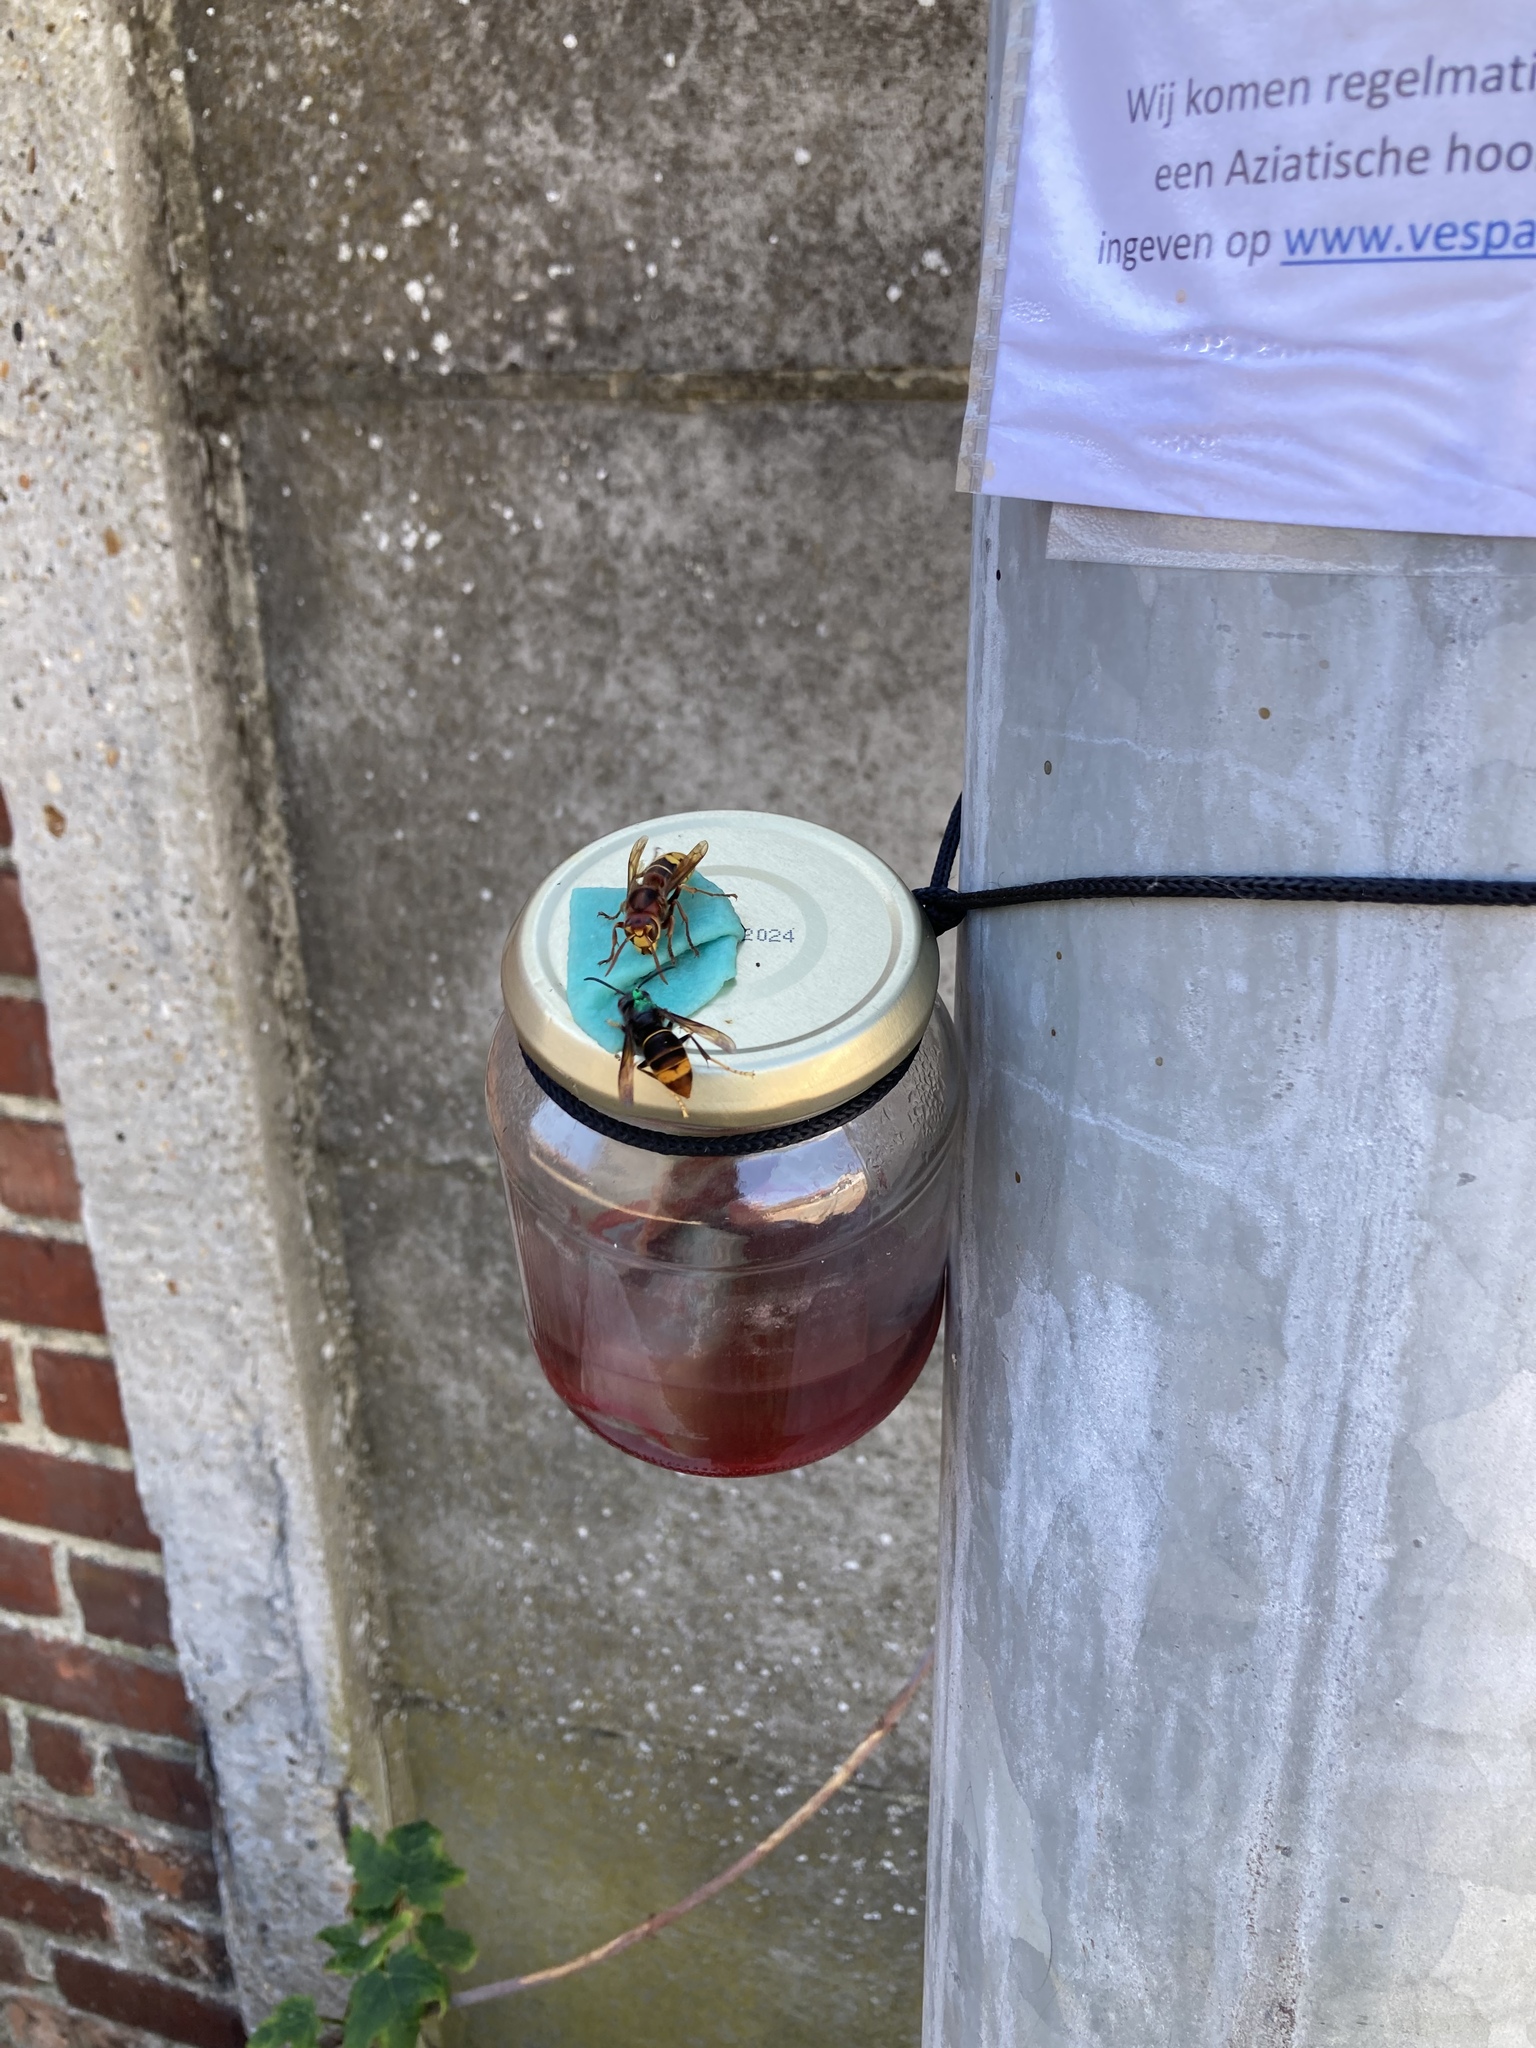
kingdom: Animalia
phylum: Arthropoda
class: Insecta
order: Hymenoptera
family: Vespidae
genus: Vespa
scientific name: Vespa velutina
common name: Asian hornet
